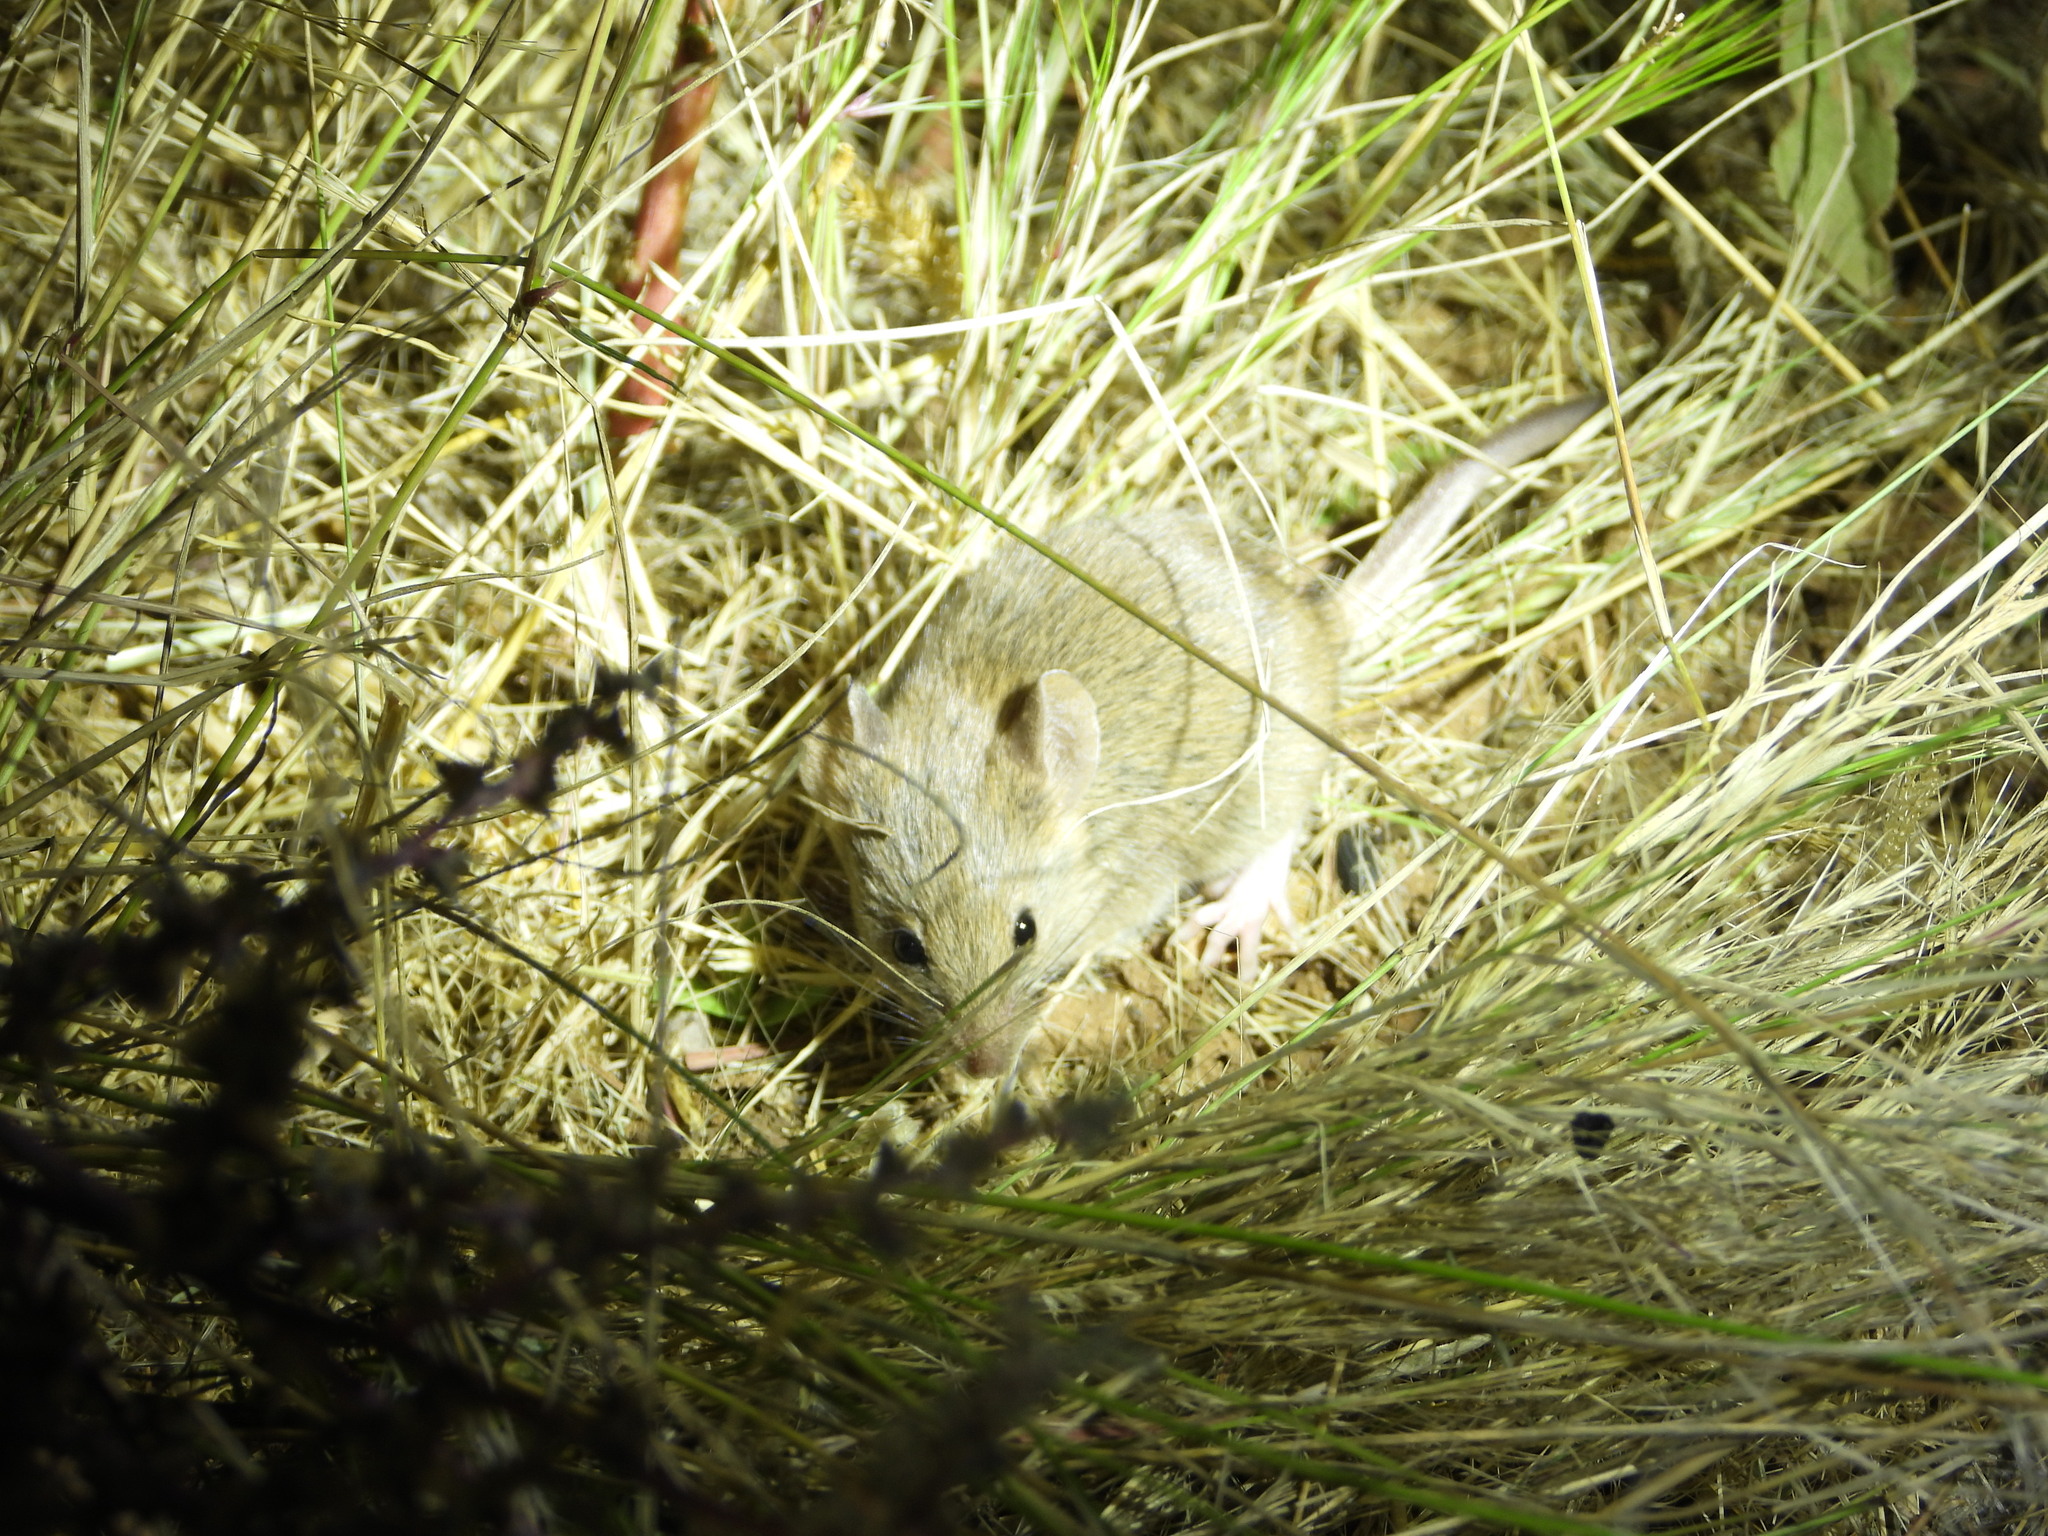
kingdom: Animalia
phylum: Chordata
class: Mammalia
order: Rodentia
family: Cricetidae
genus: Reithrodontomys
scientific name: Reithrodontomys megalotis
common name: Western harvest mouse
